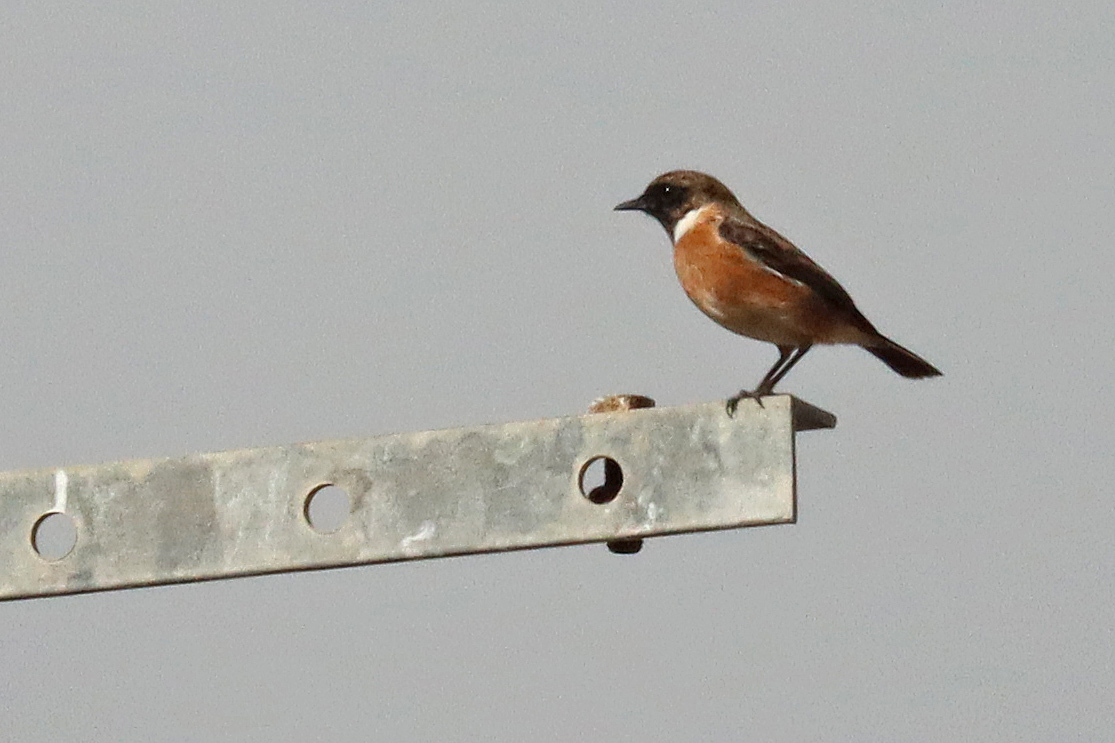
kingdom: Animalia
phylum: Chordata
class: Aves
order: Passeriformes
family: Muscicapidae
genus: Saxicola
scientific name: Saxicola rubicola
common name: European stonechat
